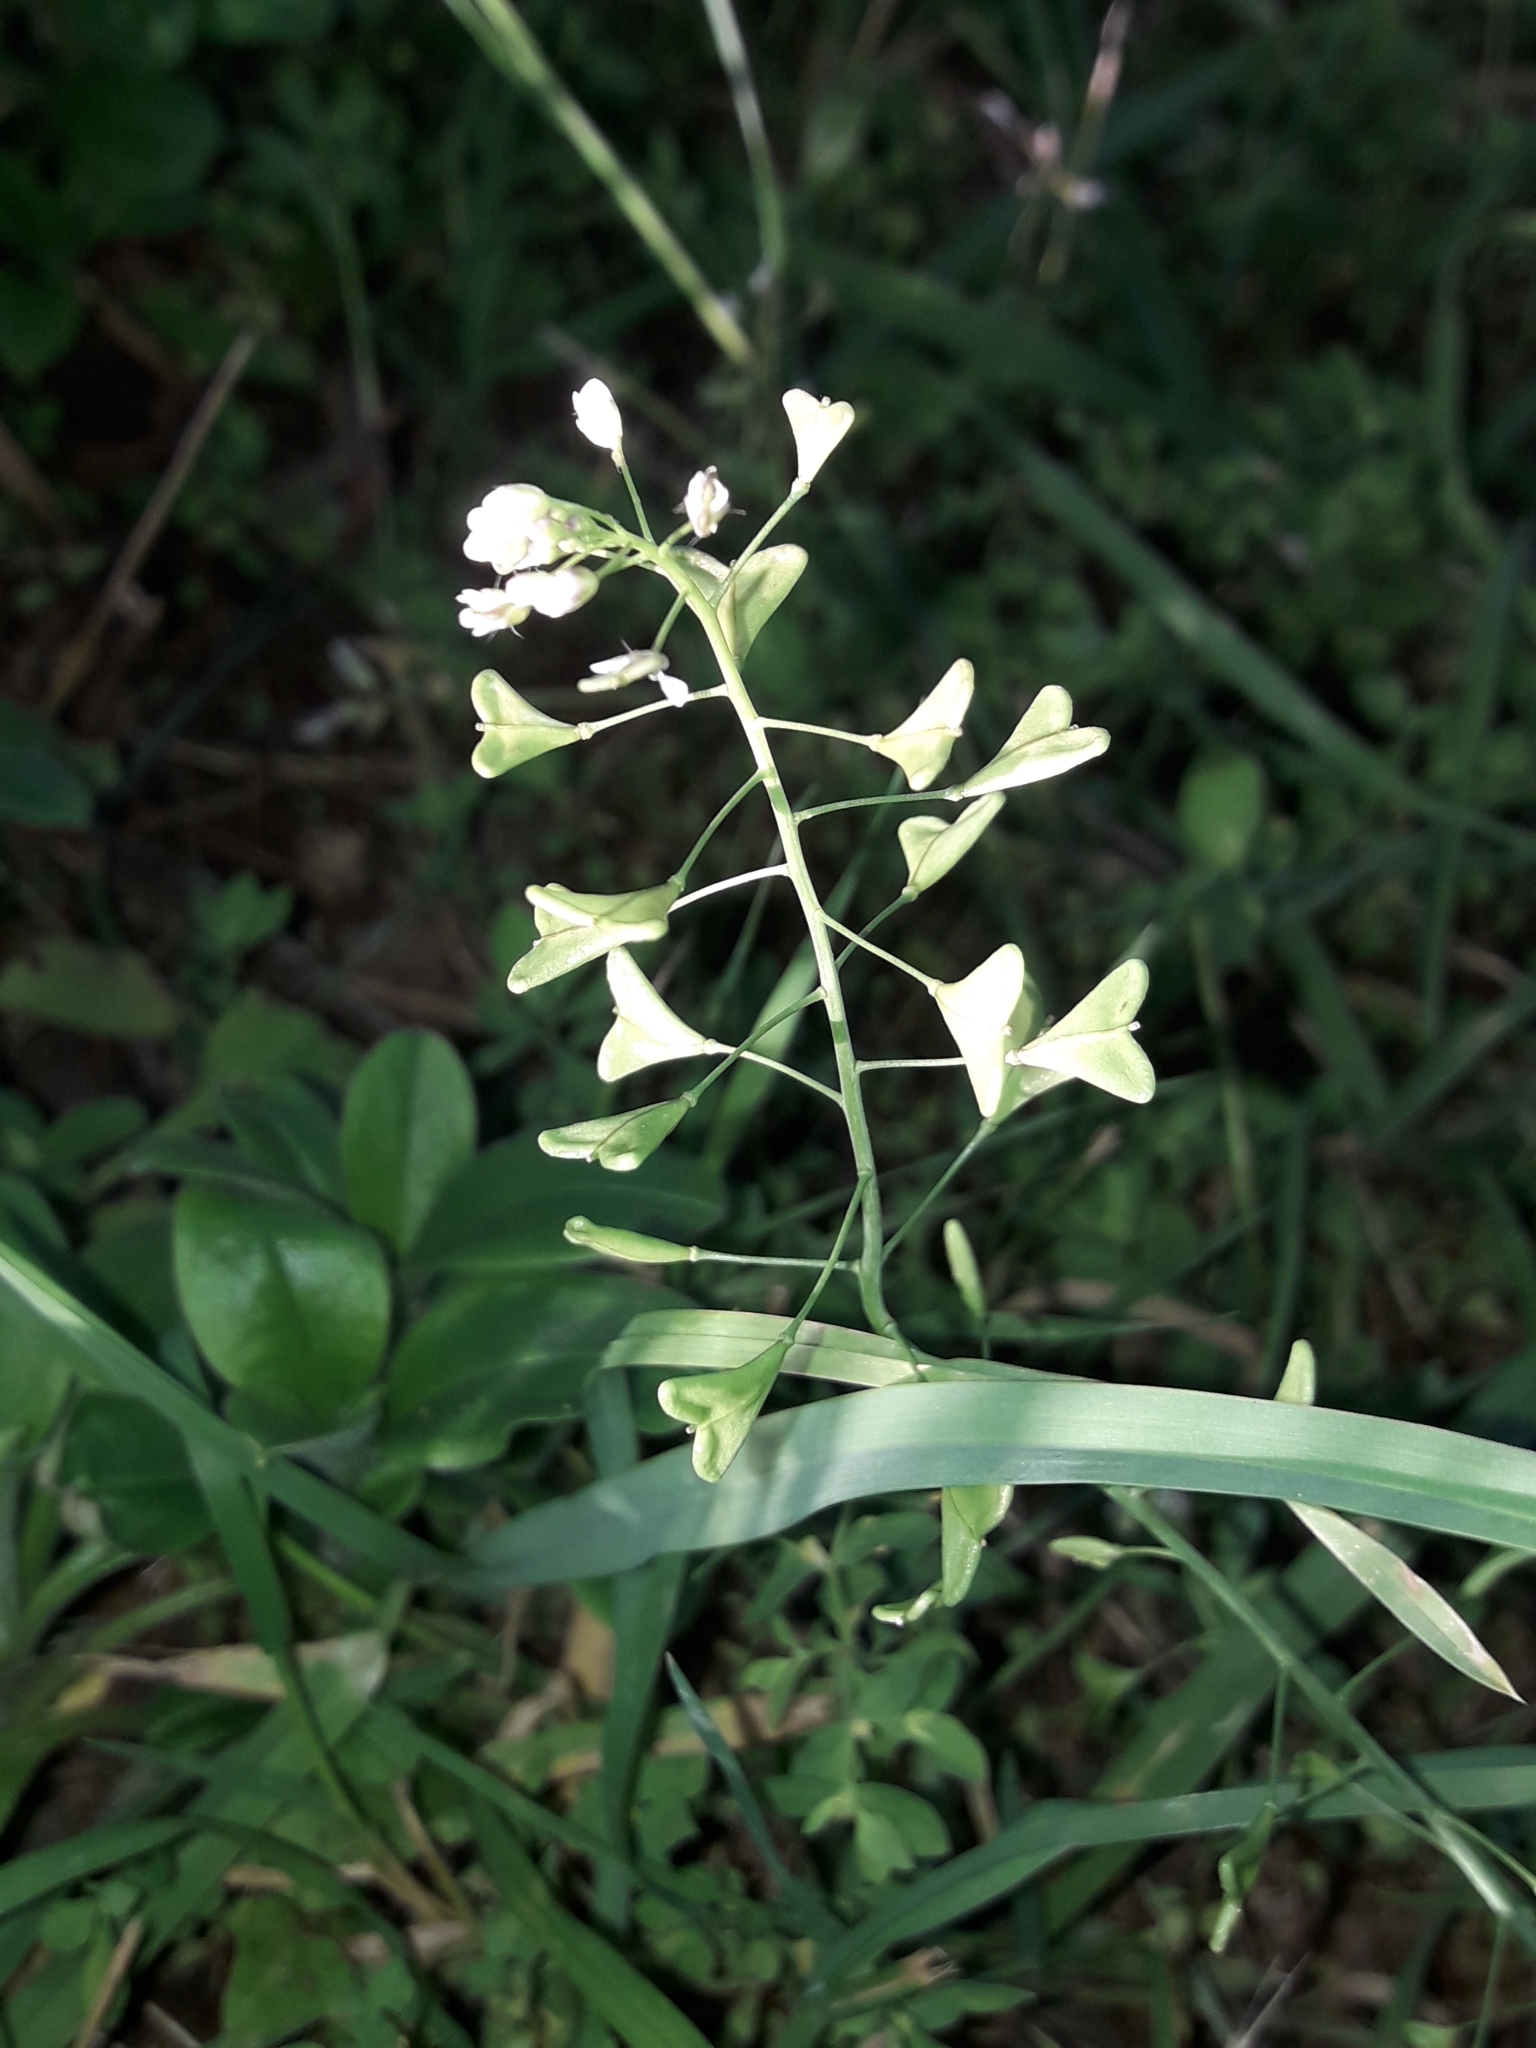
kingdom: Plantae
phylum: Tracheophyta
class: Magnoliopsida
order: Brassicales
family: Brassicaceae
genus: Capsella
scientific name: Capsella bursa-pastoris
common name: Shepherd's purse
